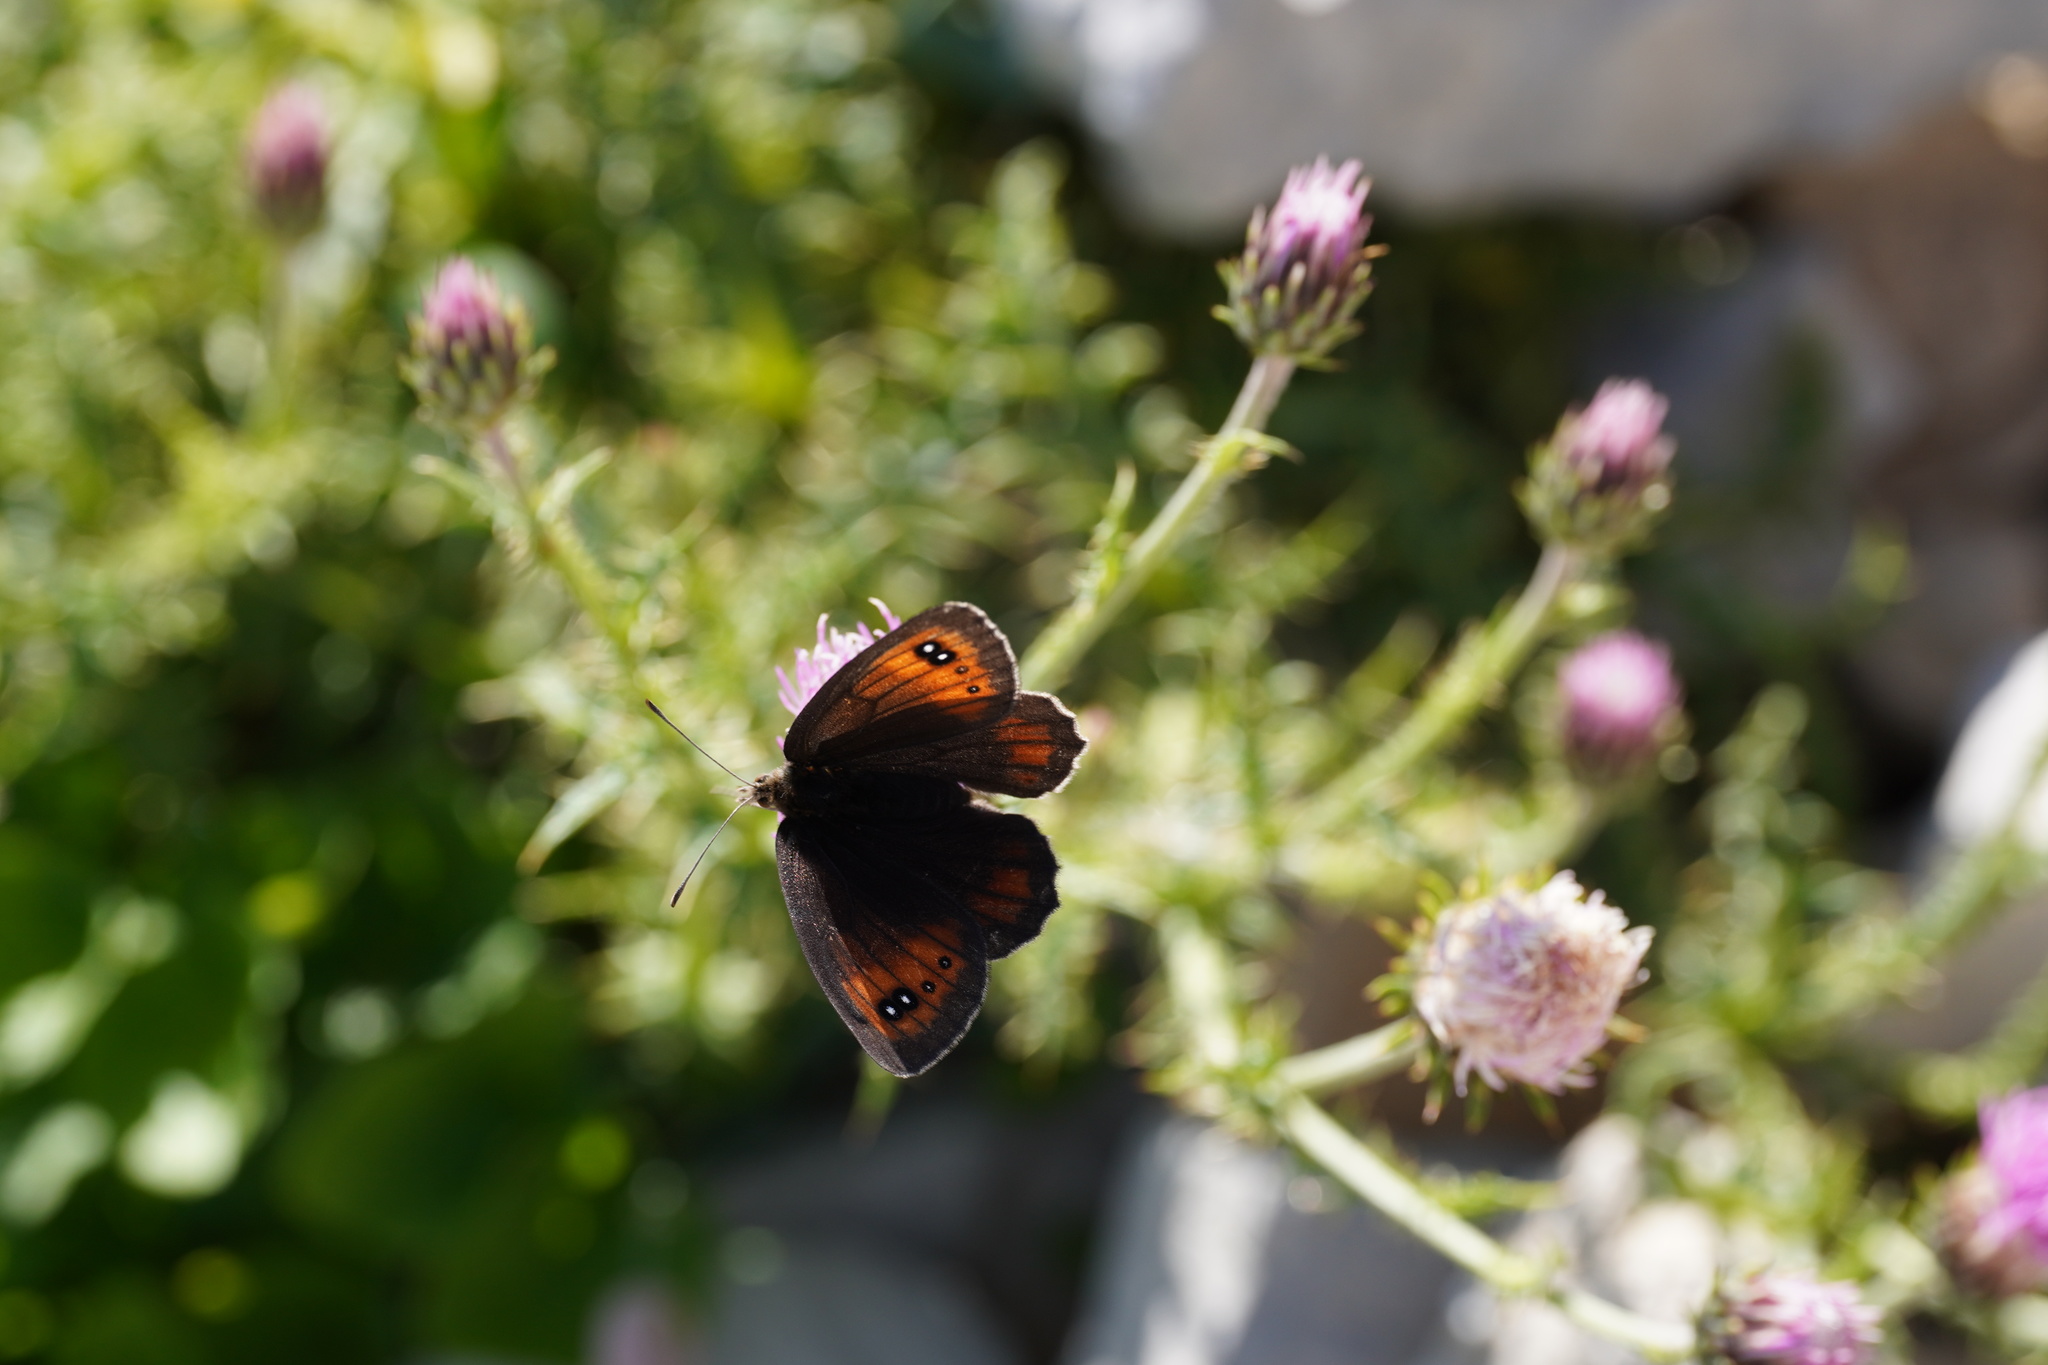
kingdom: Animalia
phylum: Arthropoda
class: Insecta
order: Lepidoptera
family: Nymphalidae
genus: Erebia
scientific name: Erebia scipio
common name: Larche ringlet
